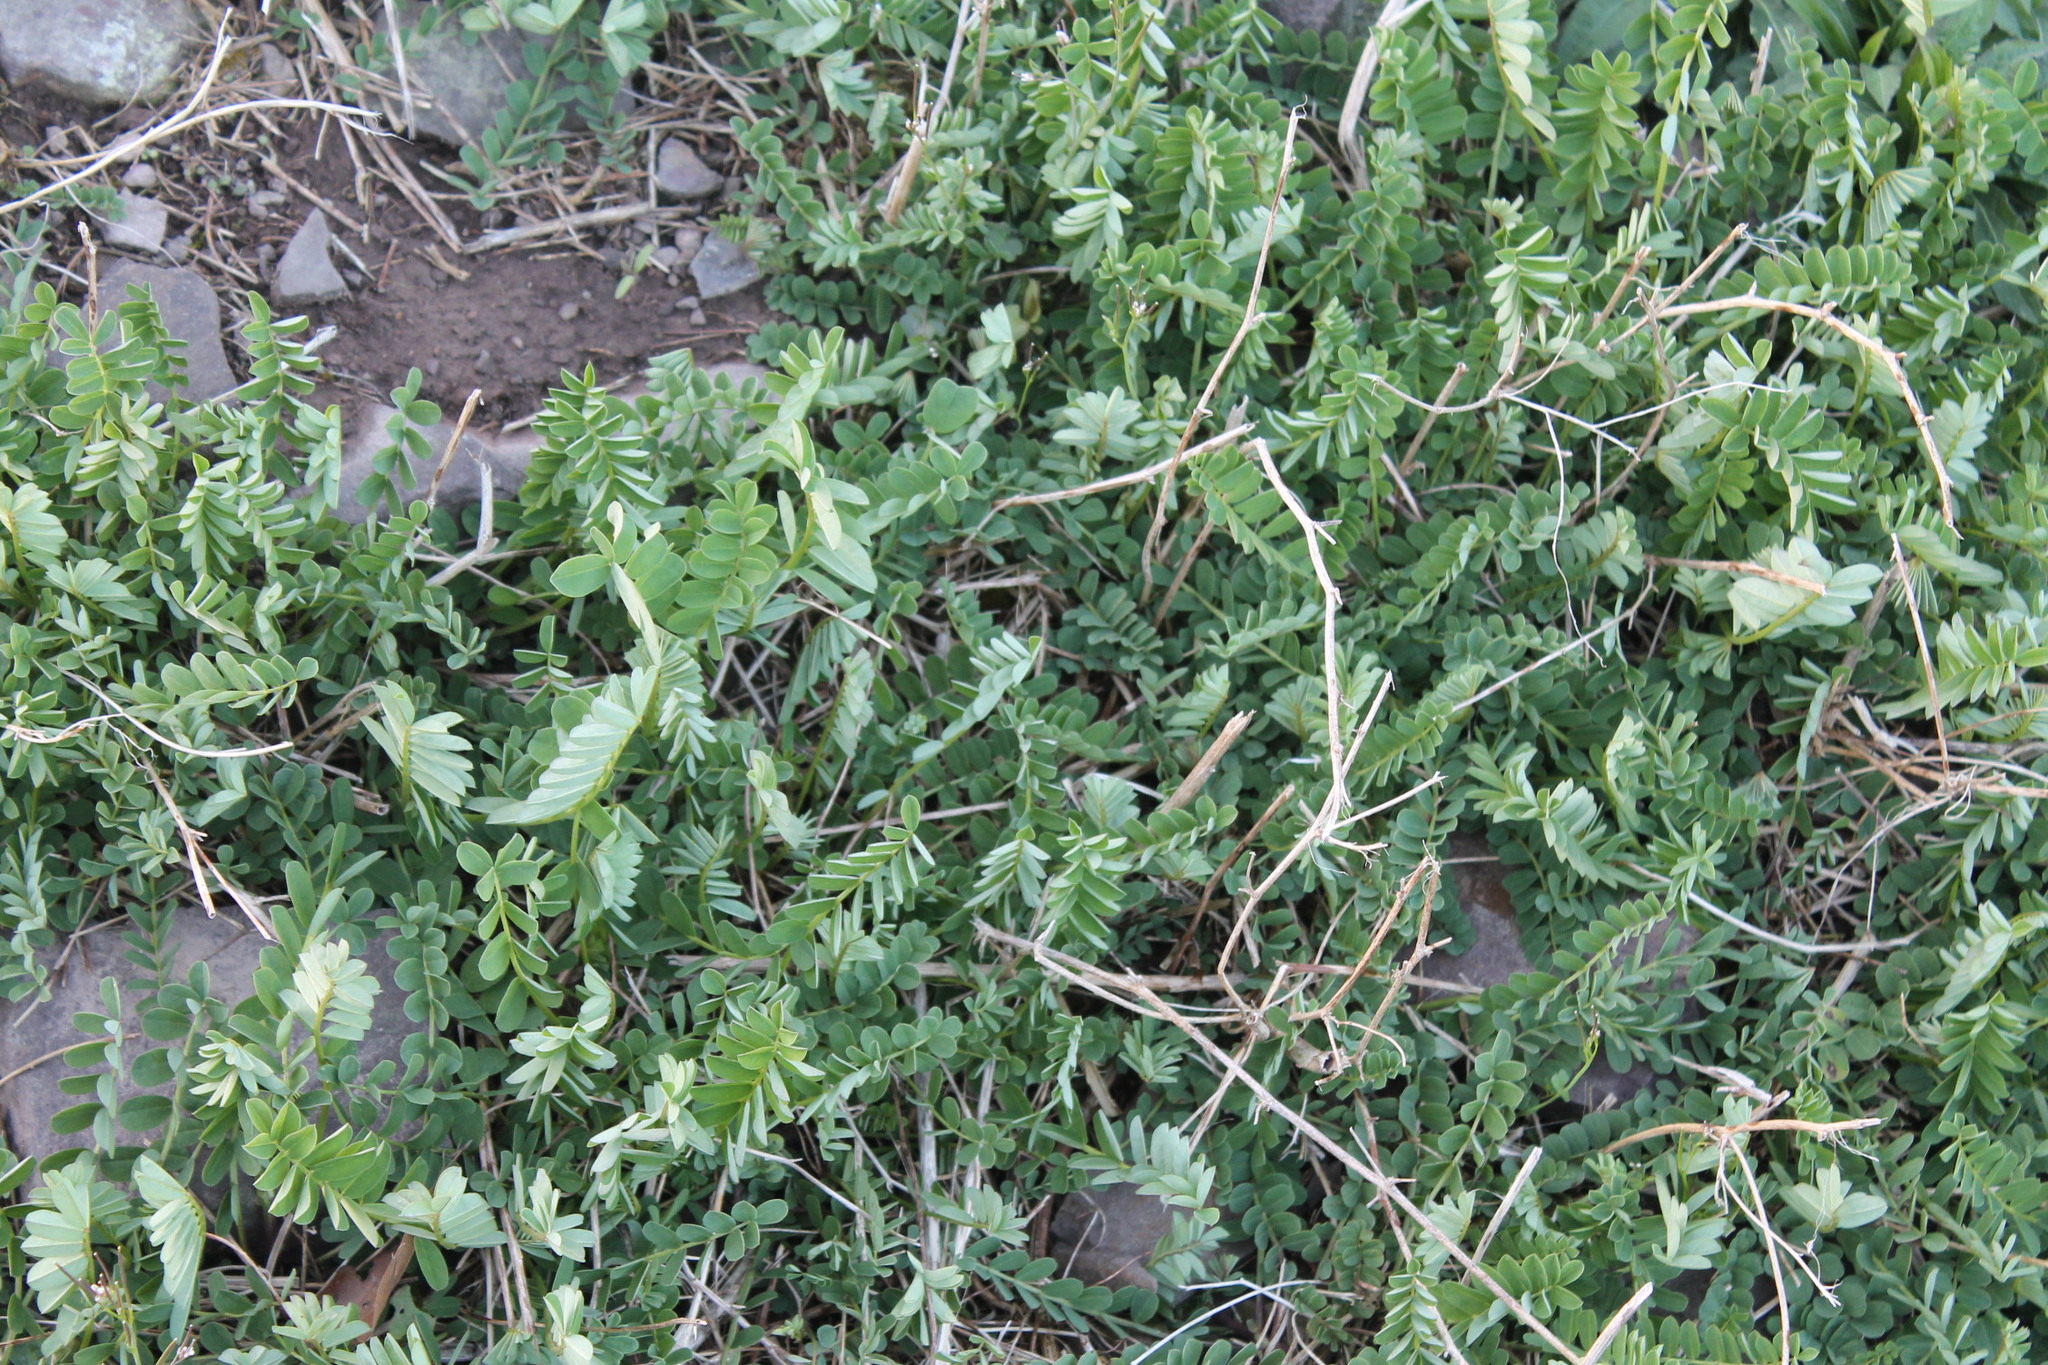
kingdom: Plantae
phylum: Tracheophyta
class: Magnoliopsida
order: Fabales
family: Fabaceae
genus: Coronilla
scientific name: Coronilla varia
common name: Crownvetch
